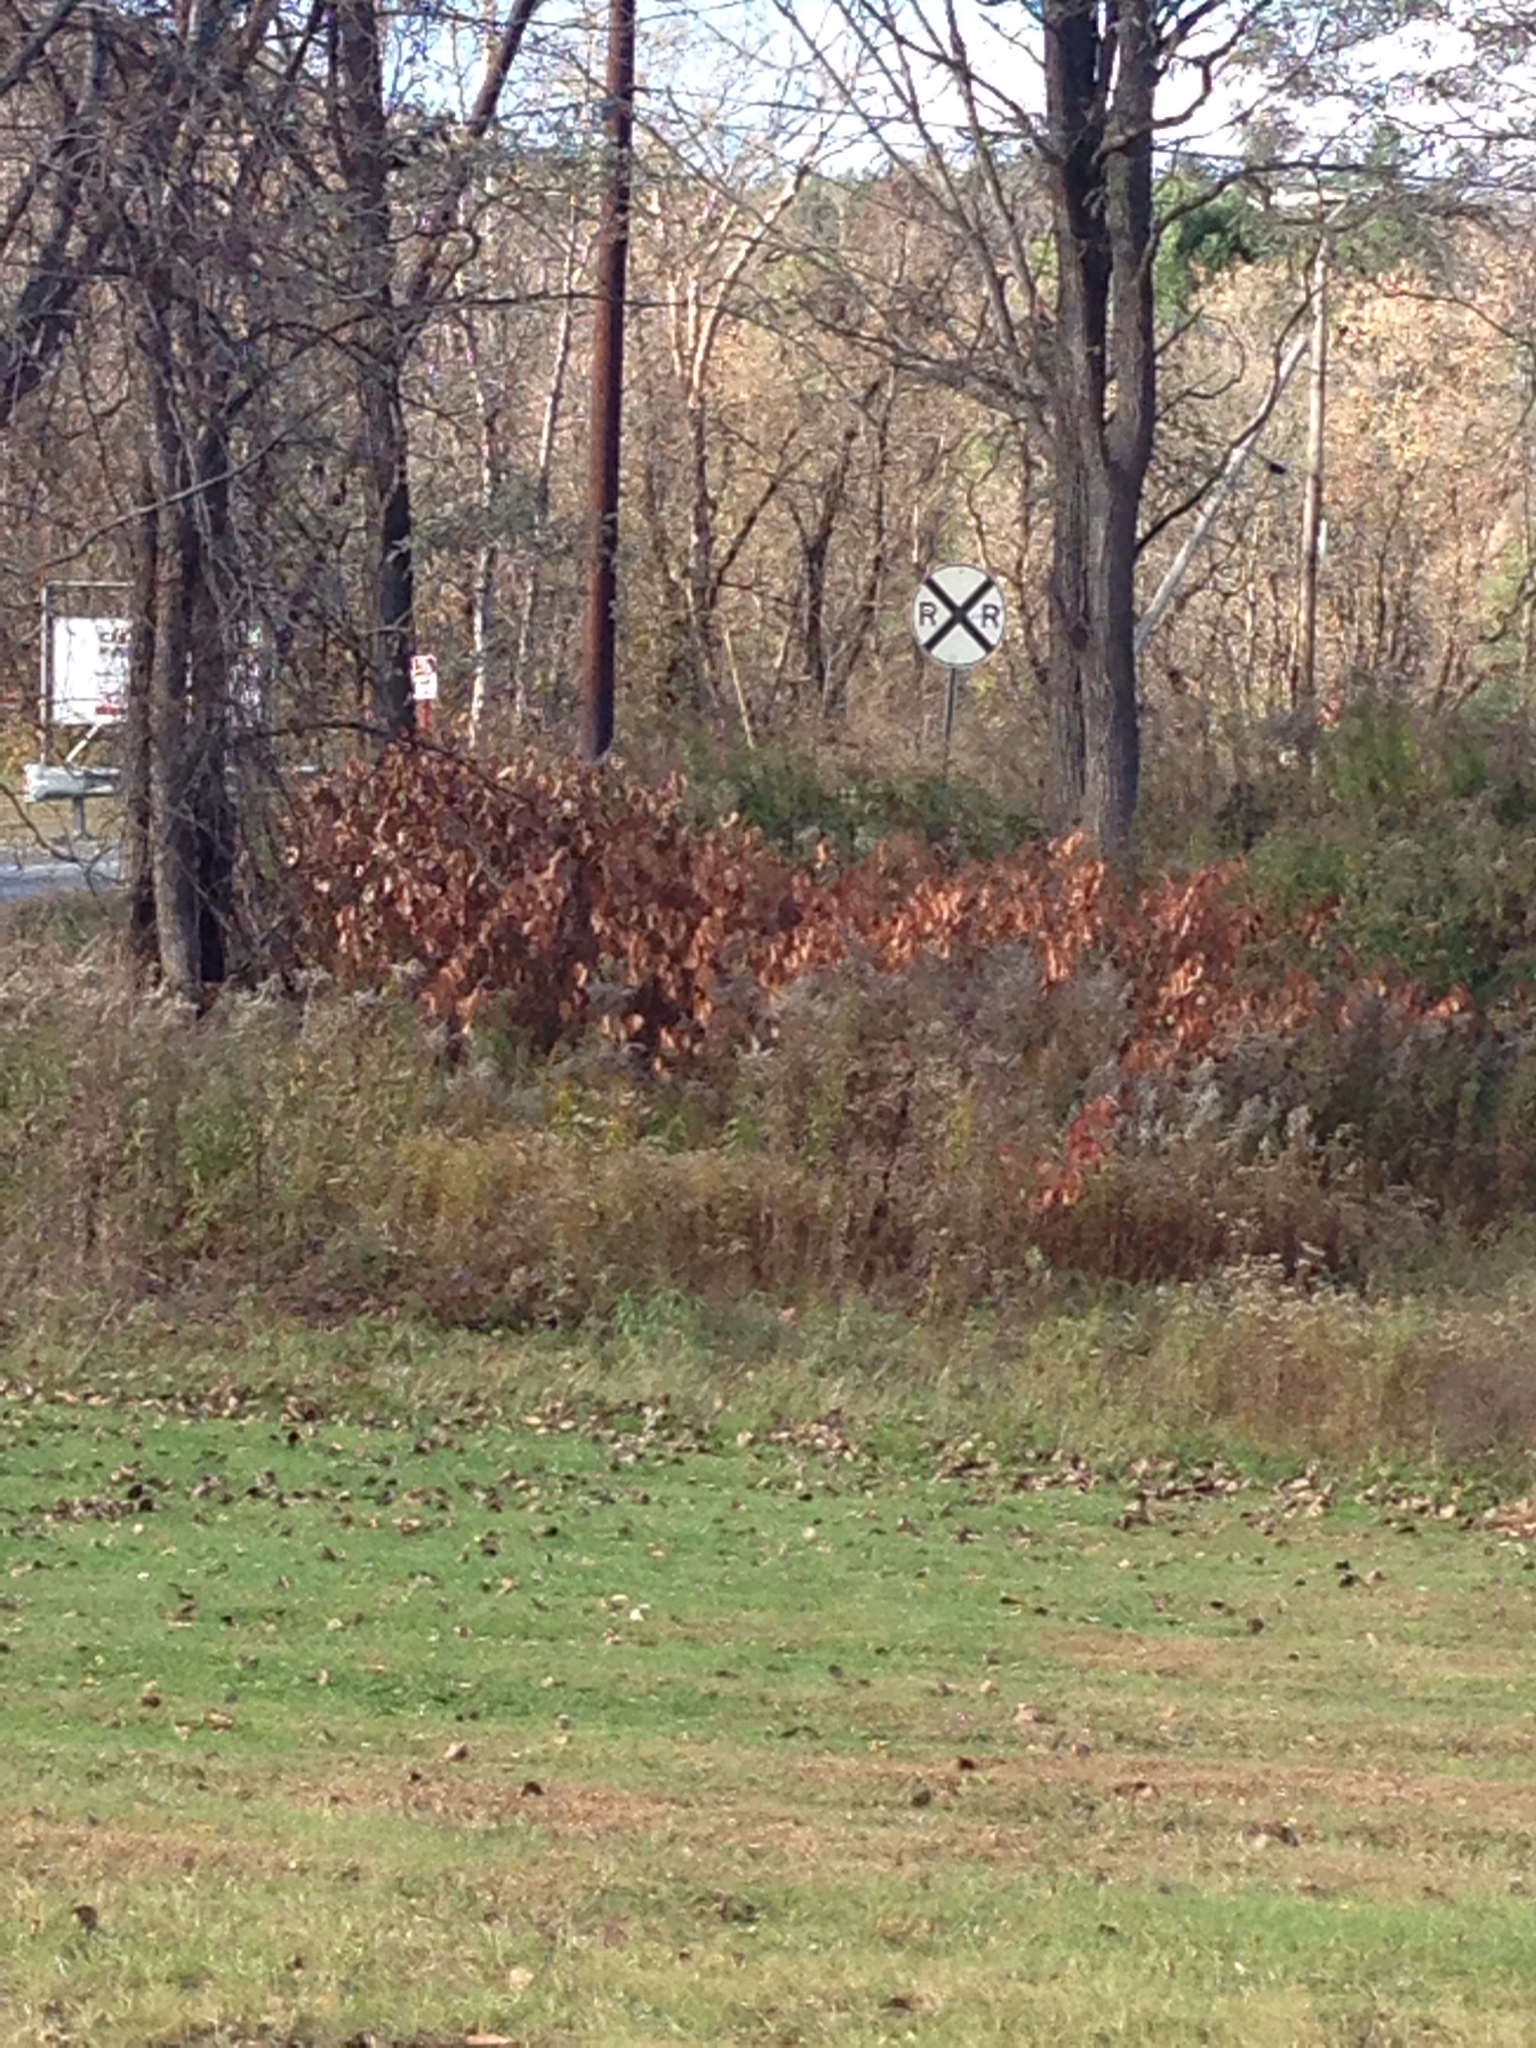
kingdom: Plantae
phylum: Tracheophyta
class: Magnoliopsida
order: Caryophyllales
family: Polygonaceae
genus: Reynoutria
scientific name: Reynoutria japonica
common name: Japanese knotweed
